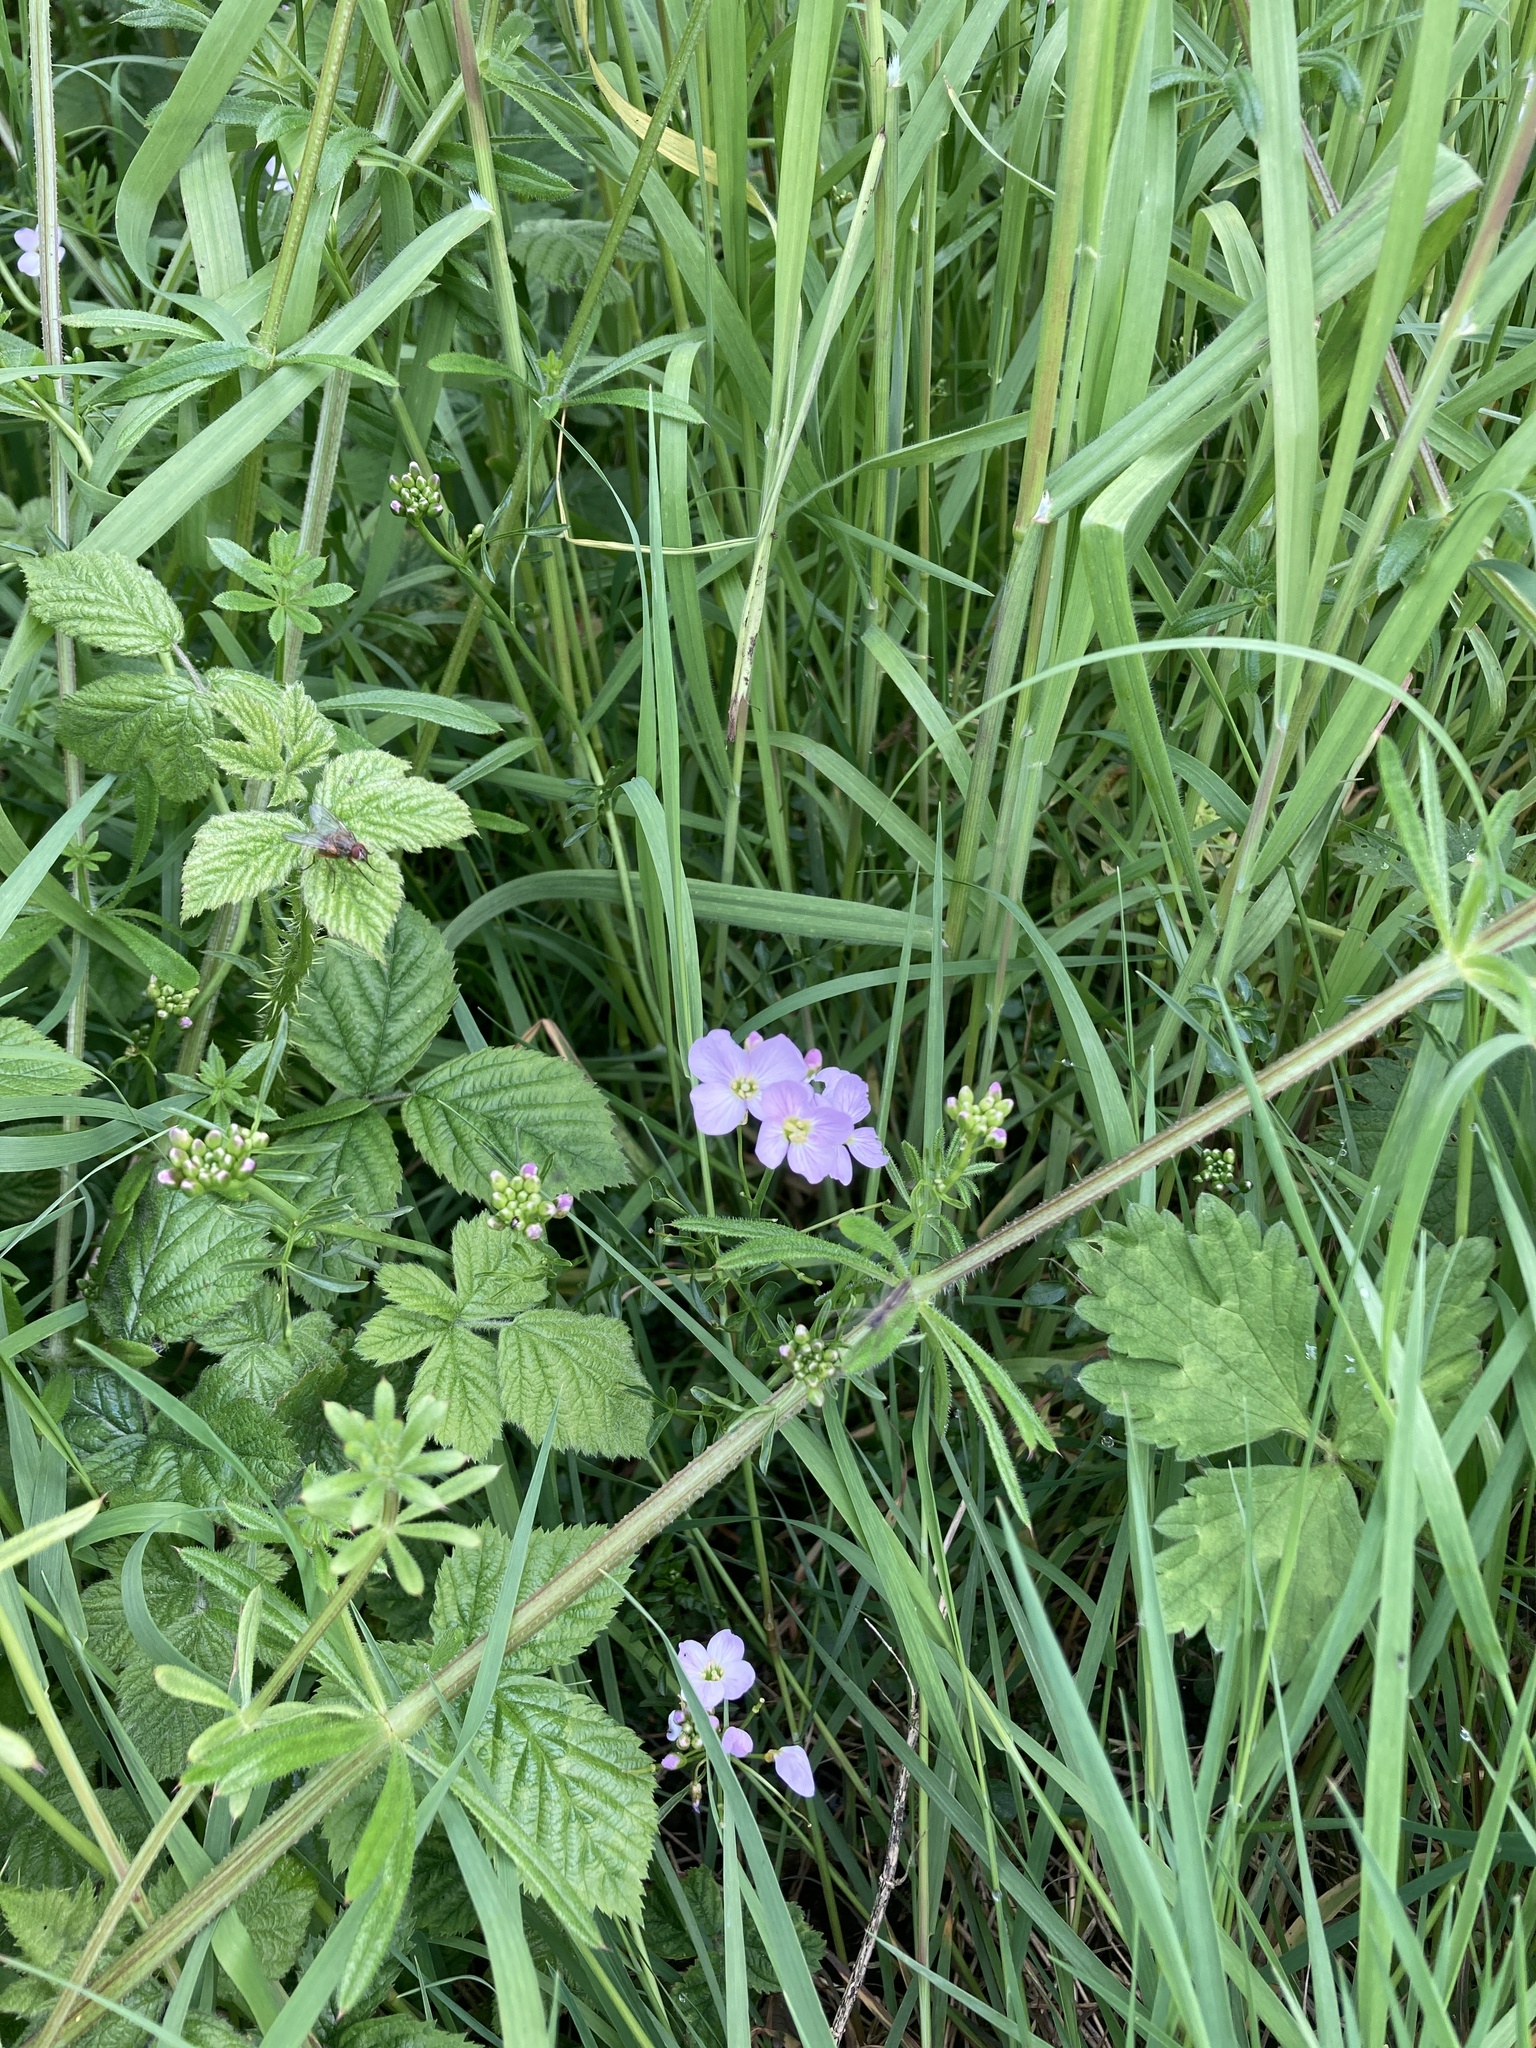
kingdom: Plantae
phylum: Tracheophyta
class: Magnoliopsida
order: Brassicales
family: Brassicaceae
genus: Cardamine
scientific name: Cardamine pratensis
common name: Cuckoo flower
